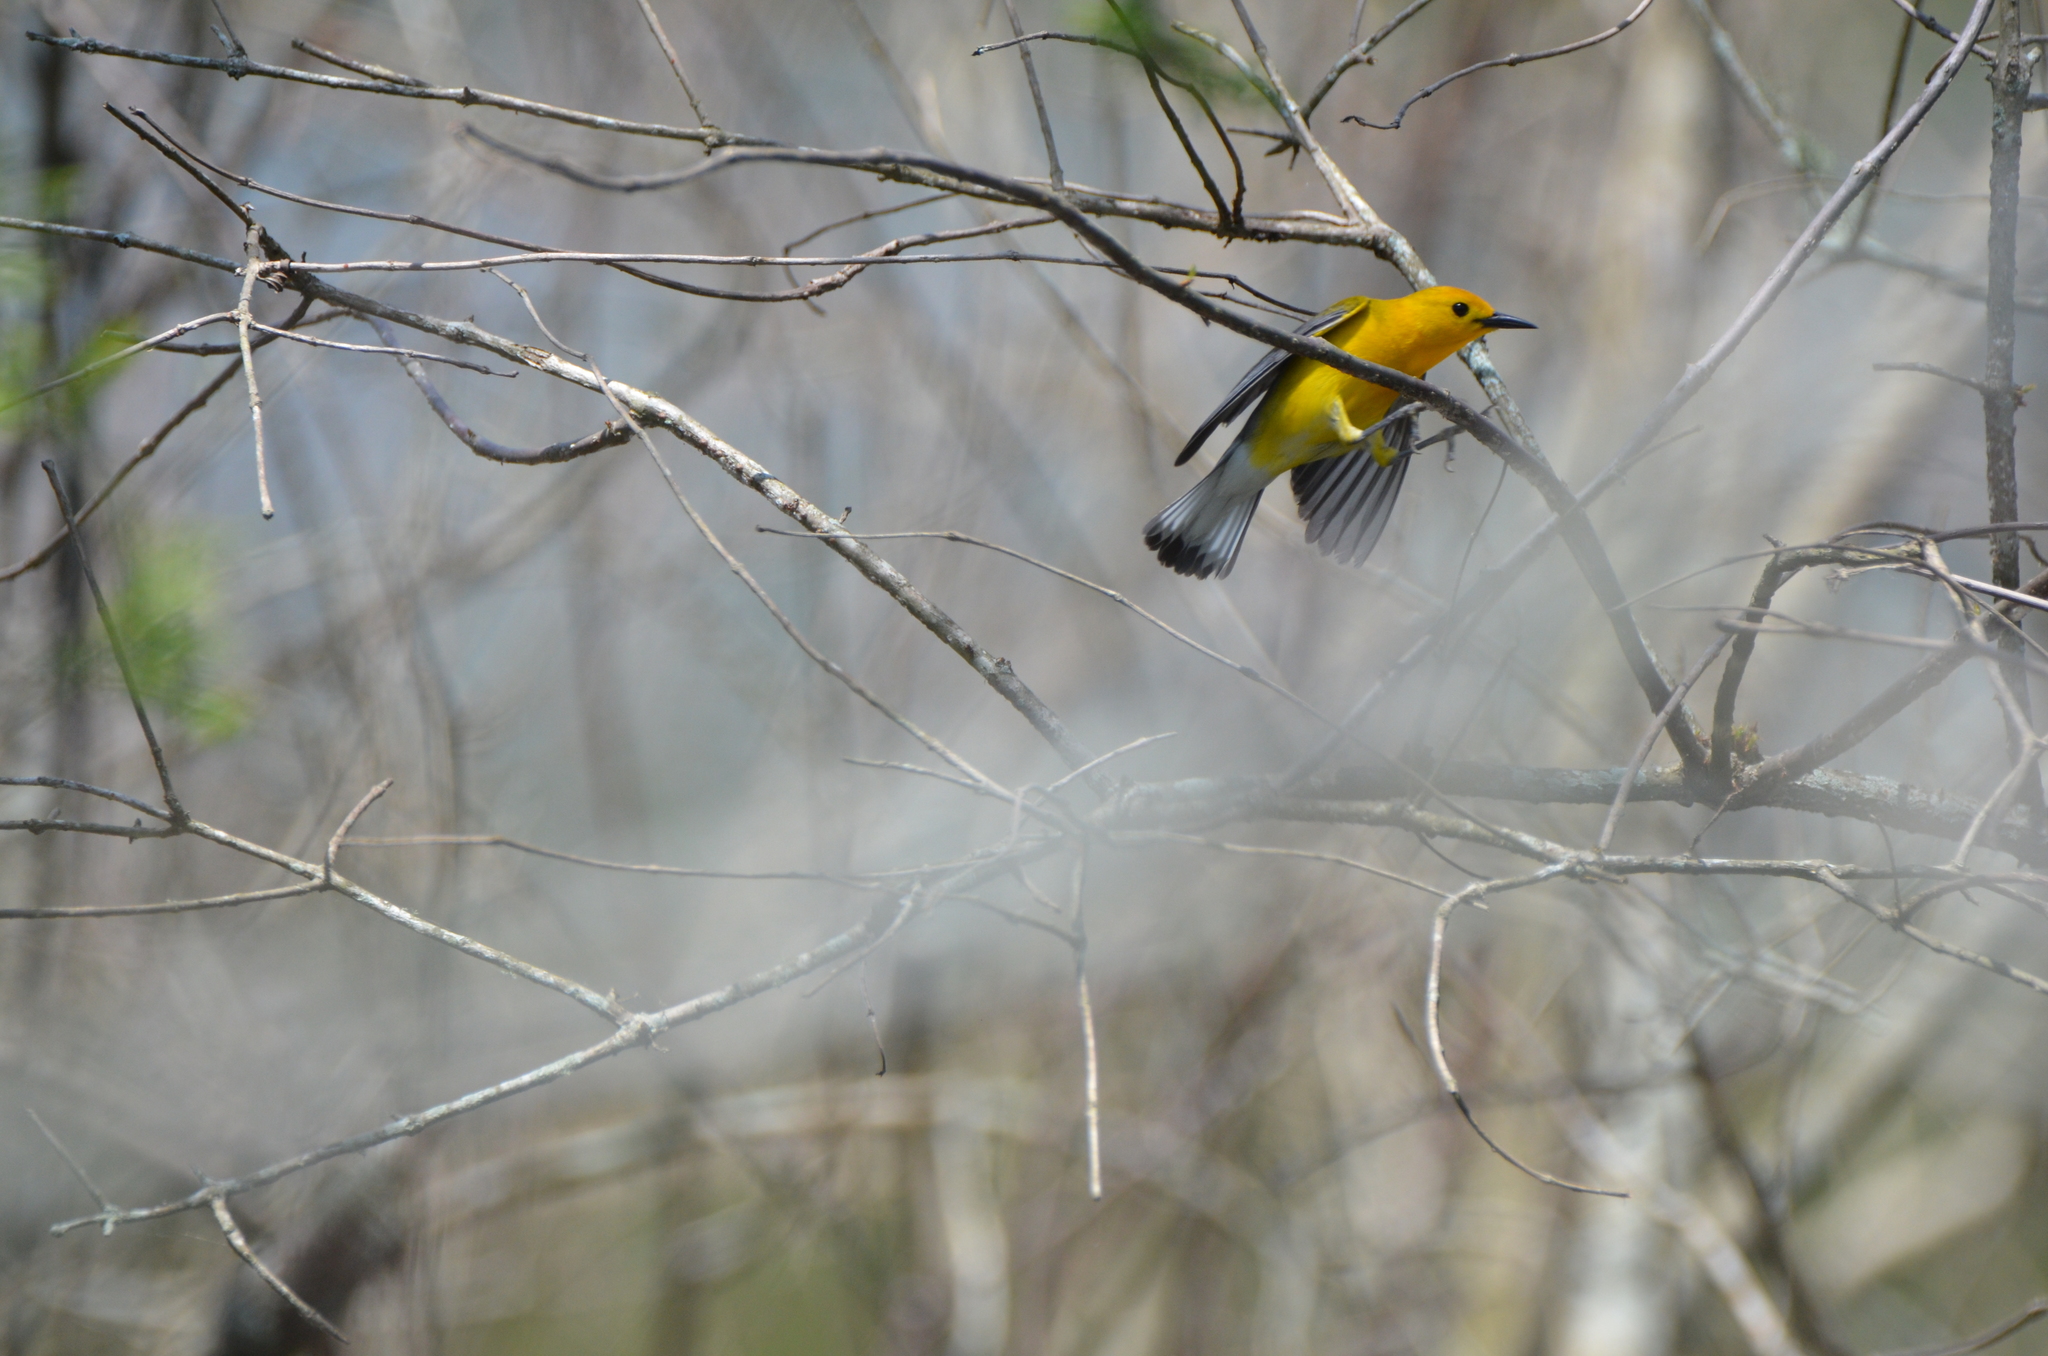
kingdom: Animalia
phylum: Chordata
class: Aves
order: Passeriformes
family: Parulidae
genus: Protonotaria
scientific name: Protonotaria citrea
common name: Prothonotary warbler
